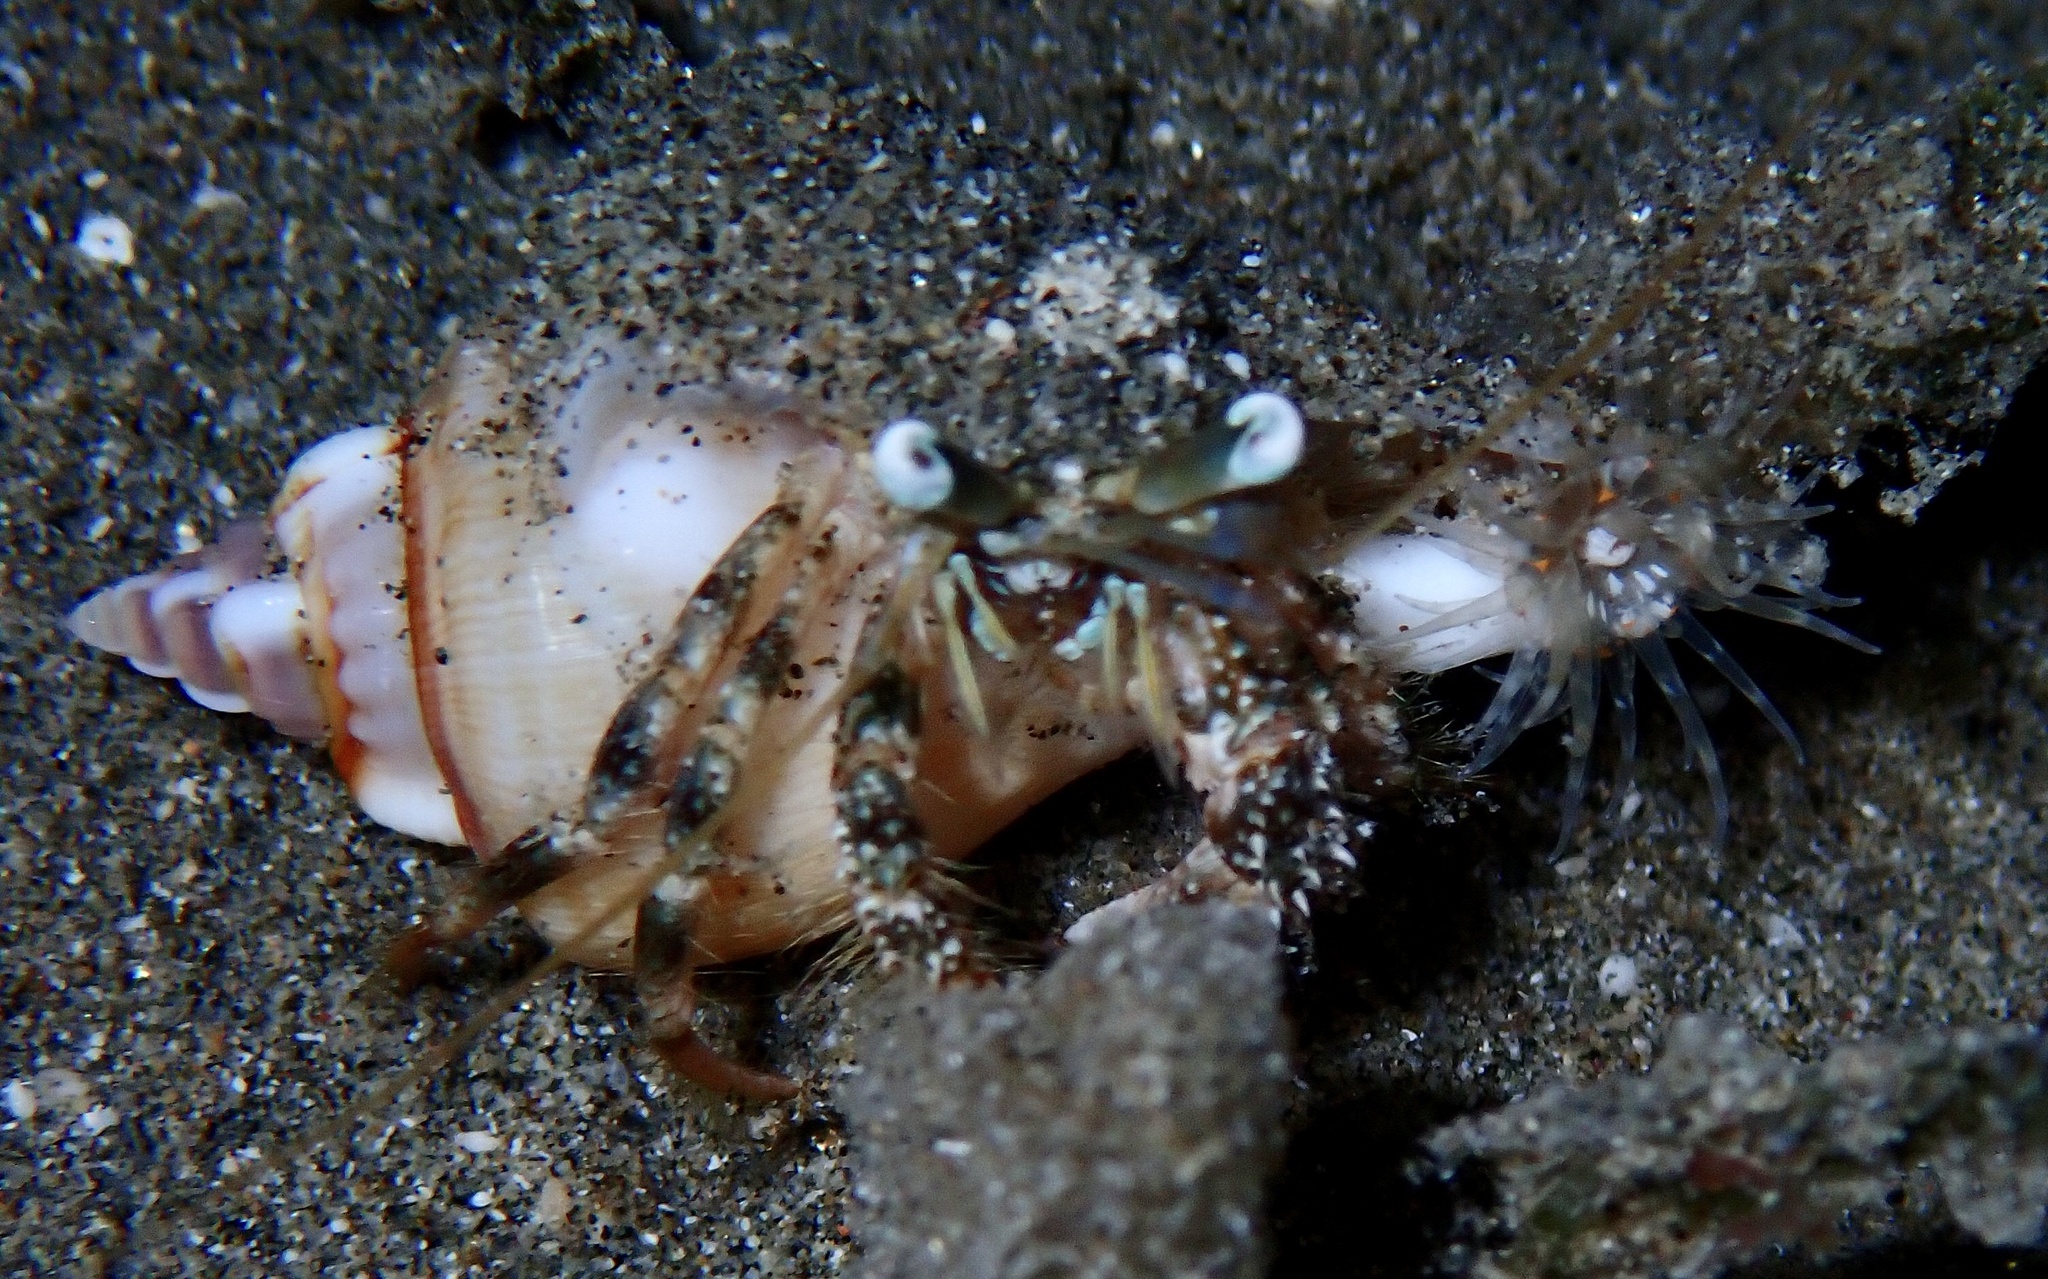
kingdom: Animalia
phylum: Arthropoda
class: Malacostraca
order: Decapoda
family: Diogenidae
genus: Dardanus
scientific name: Dardanus woodmasoni
